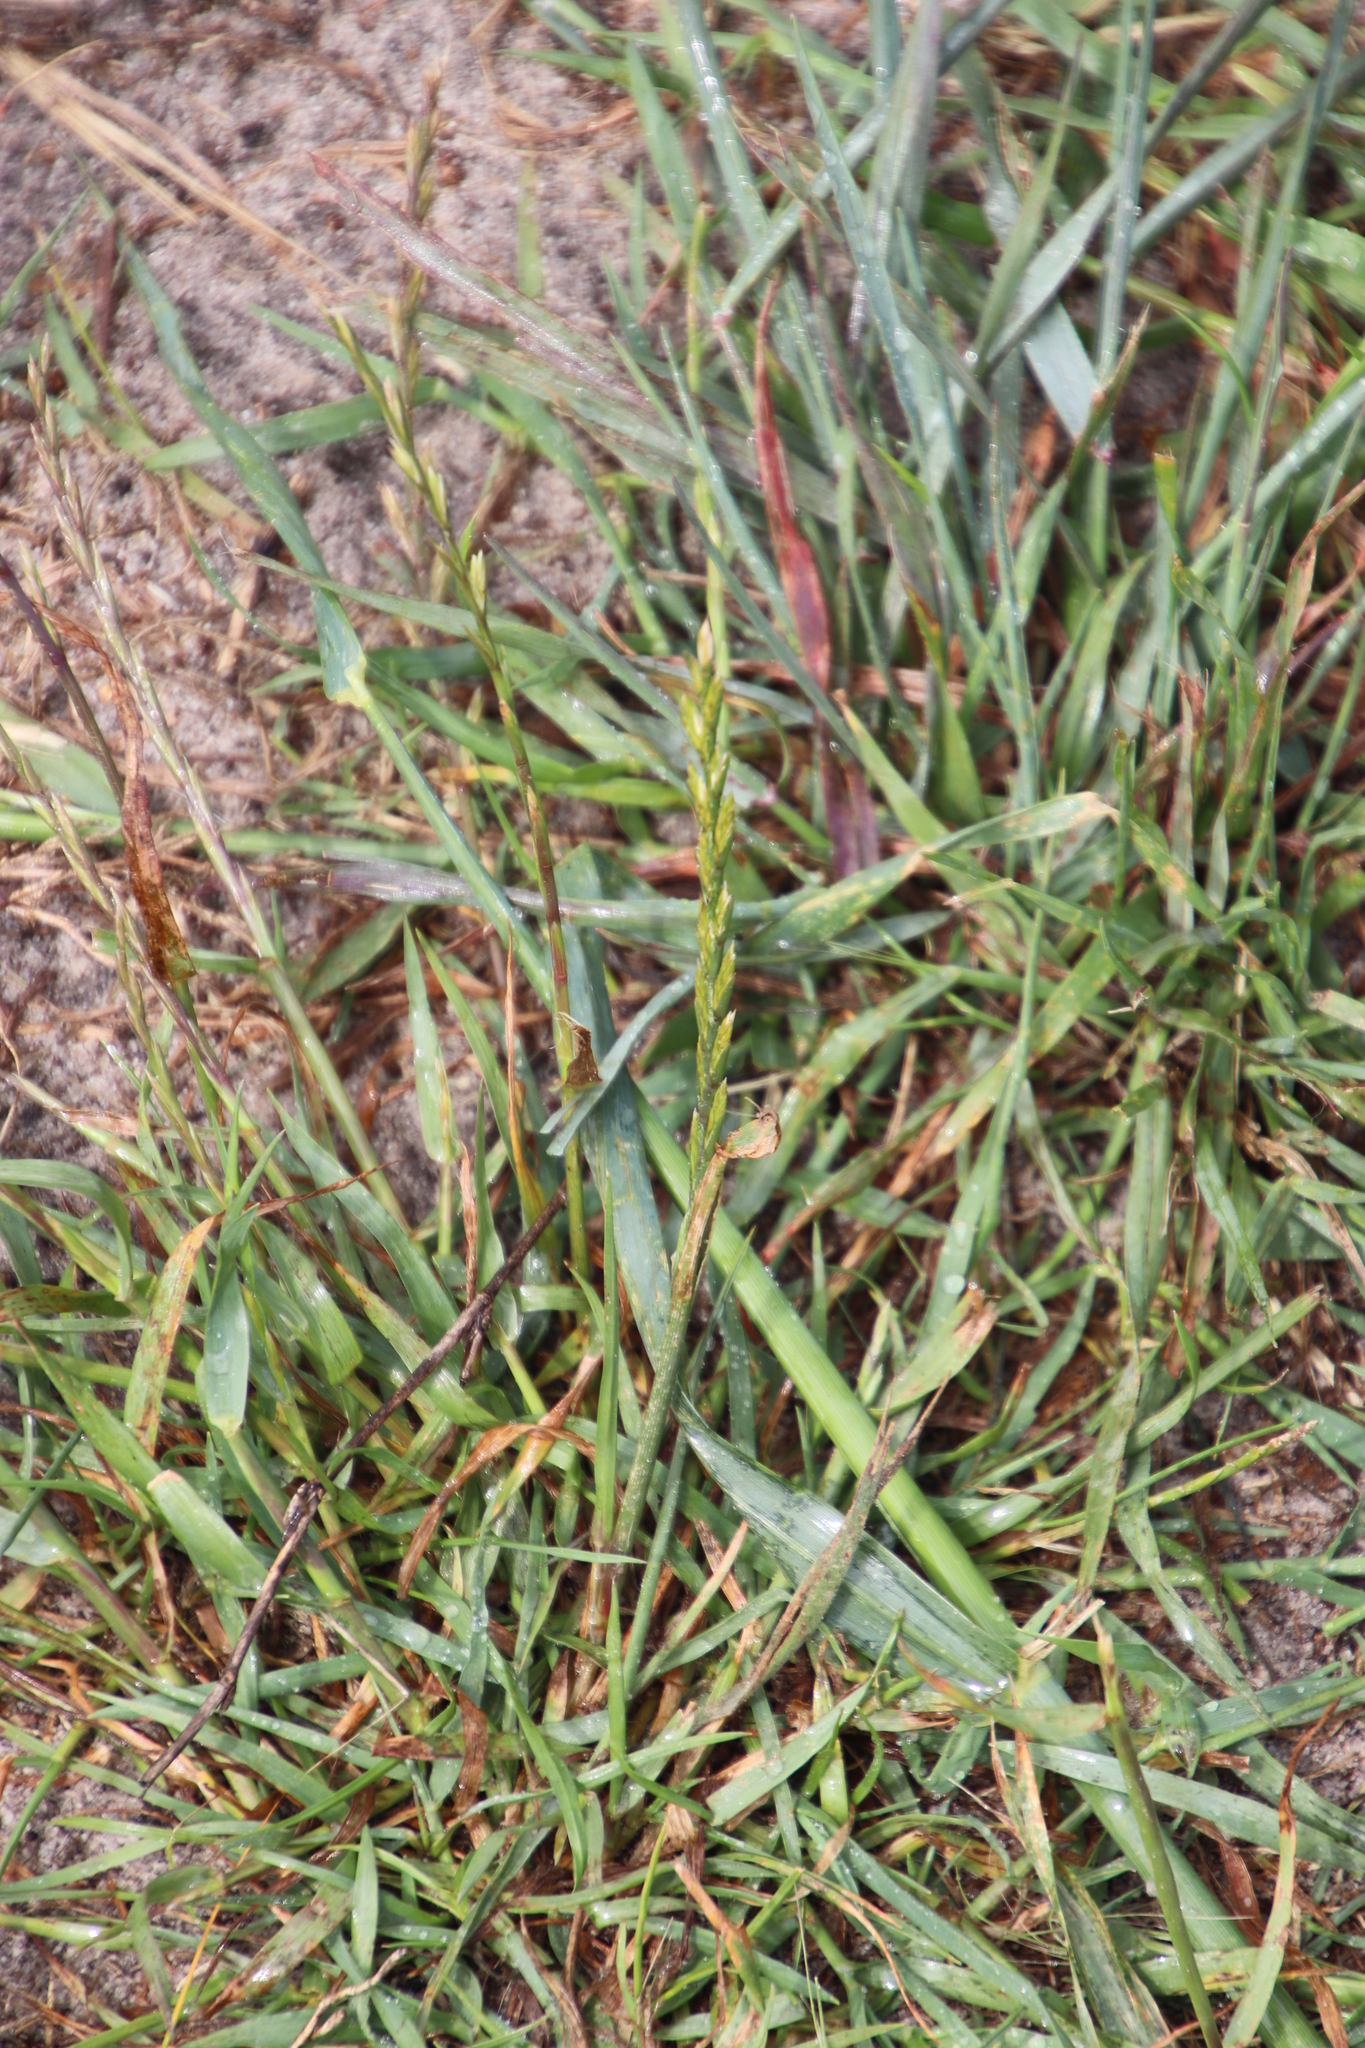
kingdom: Plantae
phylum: Tracheophyta
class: Liliopsida
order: Poales
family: Poaceae
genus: Lolium
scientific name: Lolium perenne
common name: Perennial ryegrass
